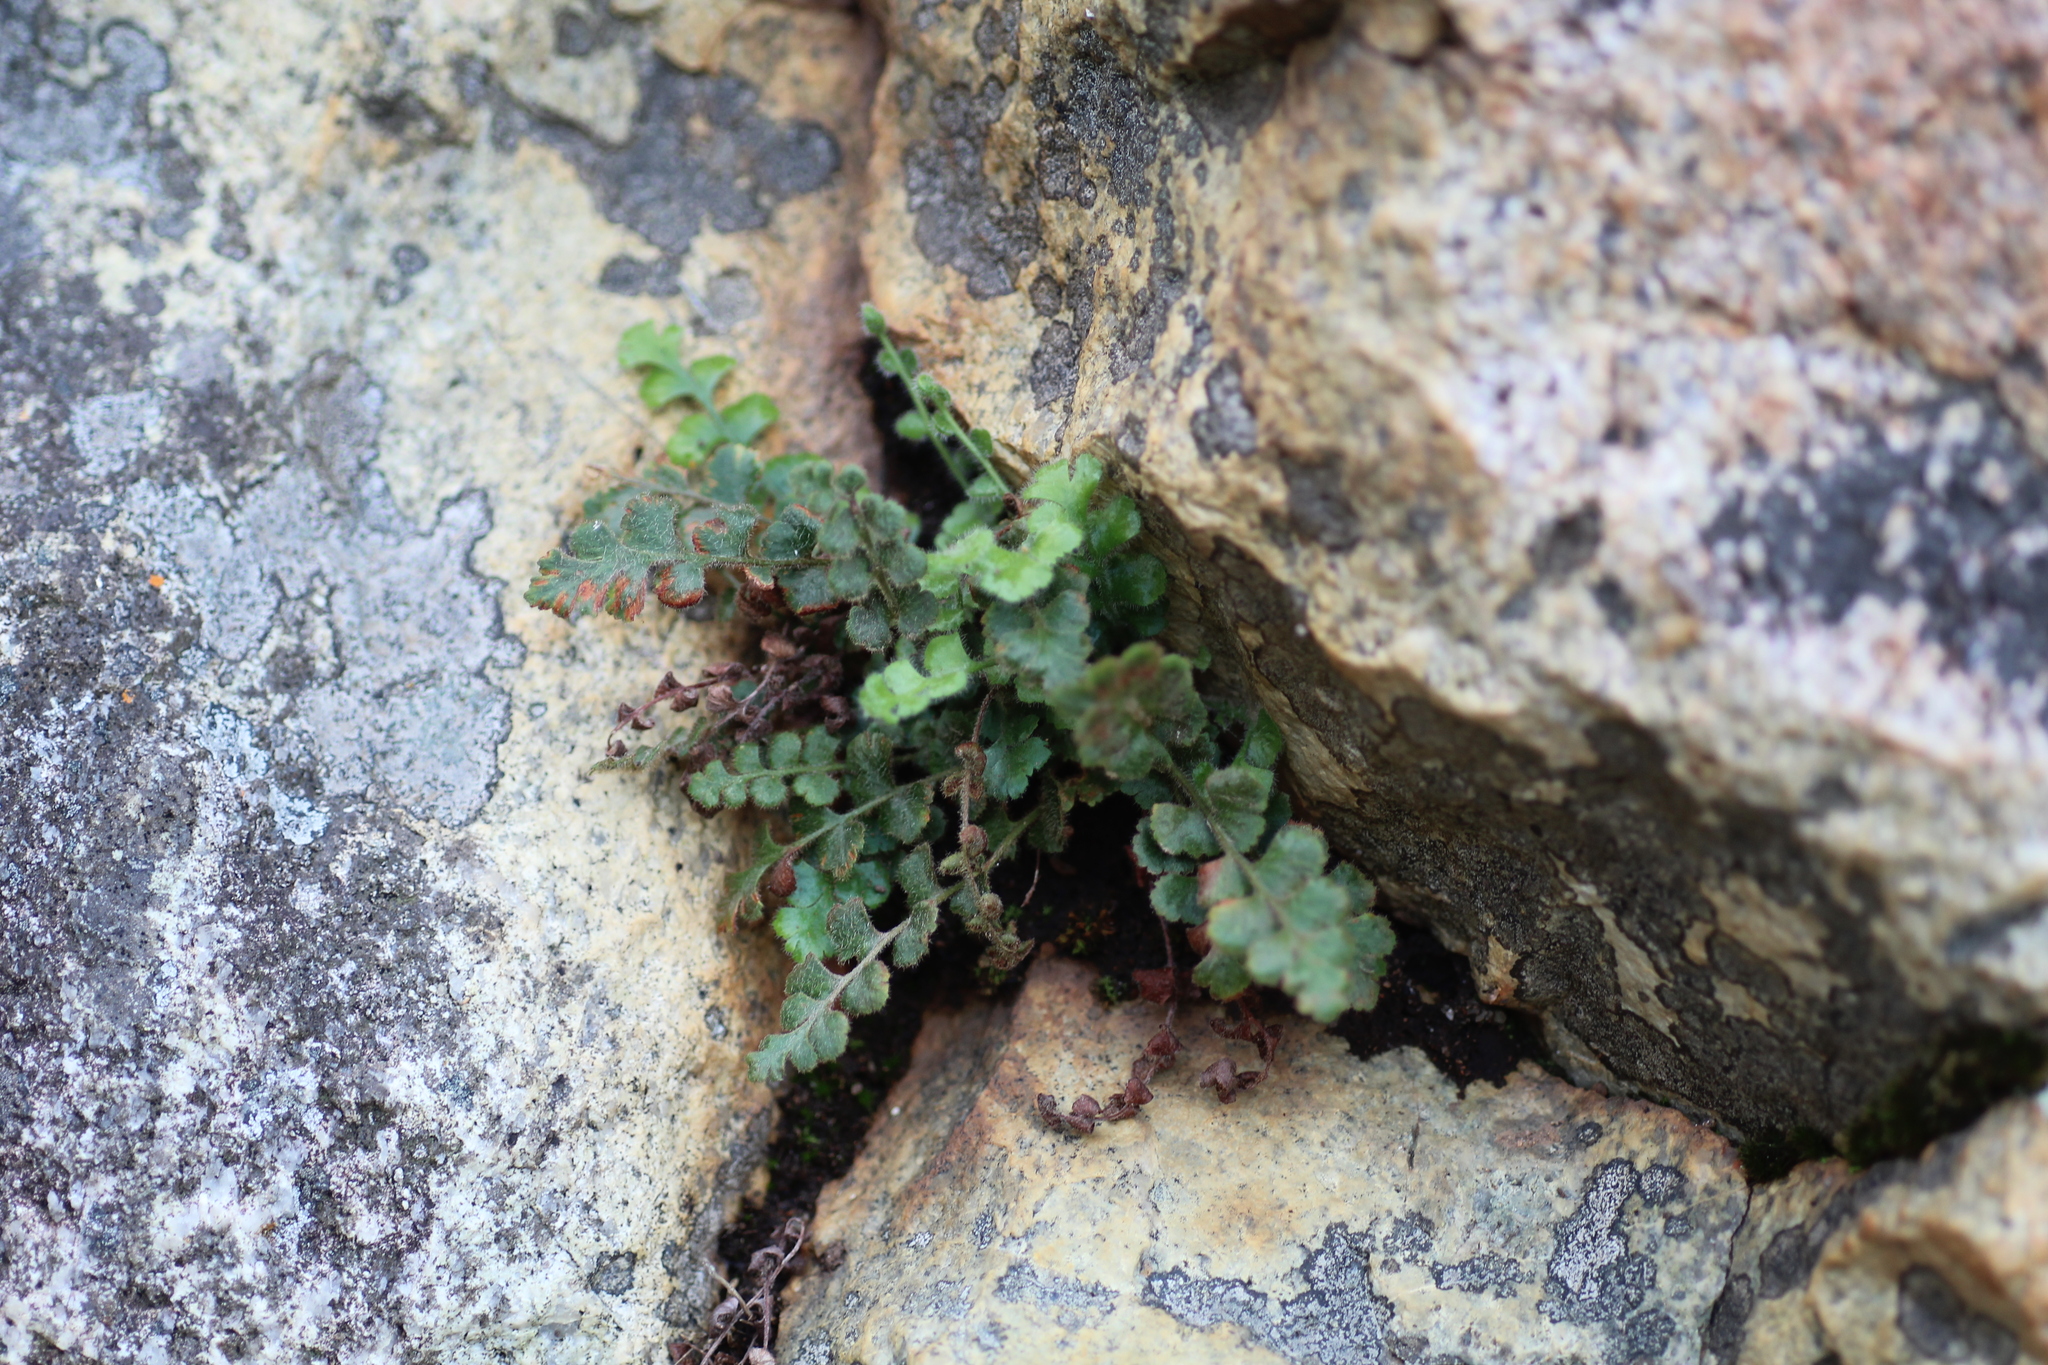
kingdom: Plantae
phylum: Tracheophyta
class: Polypodiopsida
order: Polypodiales
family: Aspleniaceae
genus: Asplenium
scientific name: Asplenium subglandulosum
